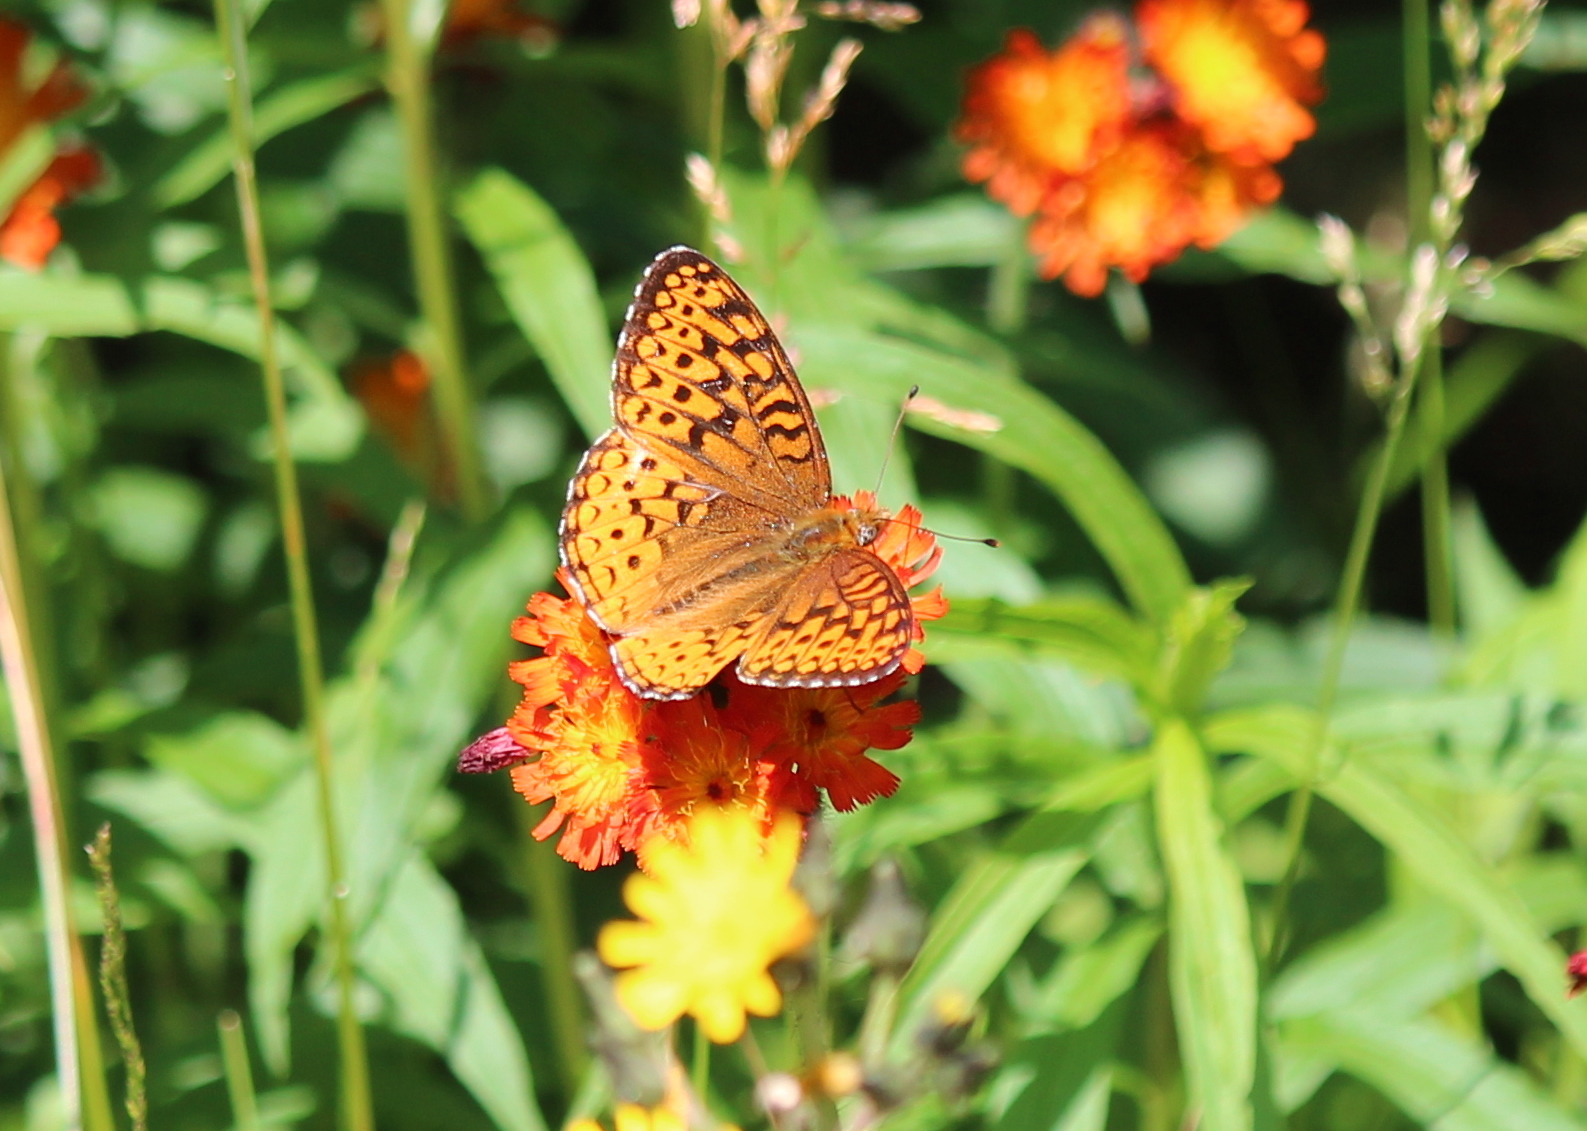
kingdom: Animalia
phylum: Arthropoda
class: Insecta
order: Lepidoptera
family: Nymphalidae
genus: Speyeria
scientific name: Speyeria atlantis
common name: Atlantis fritillary
